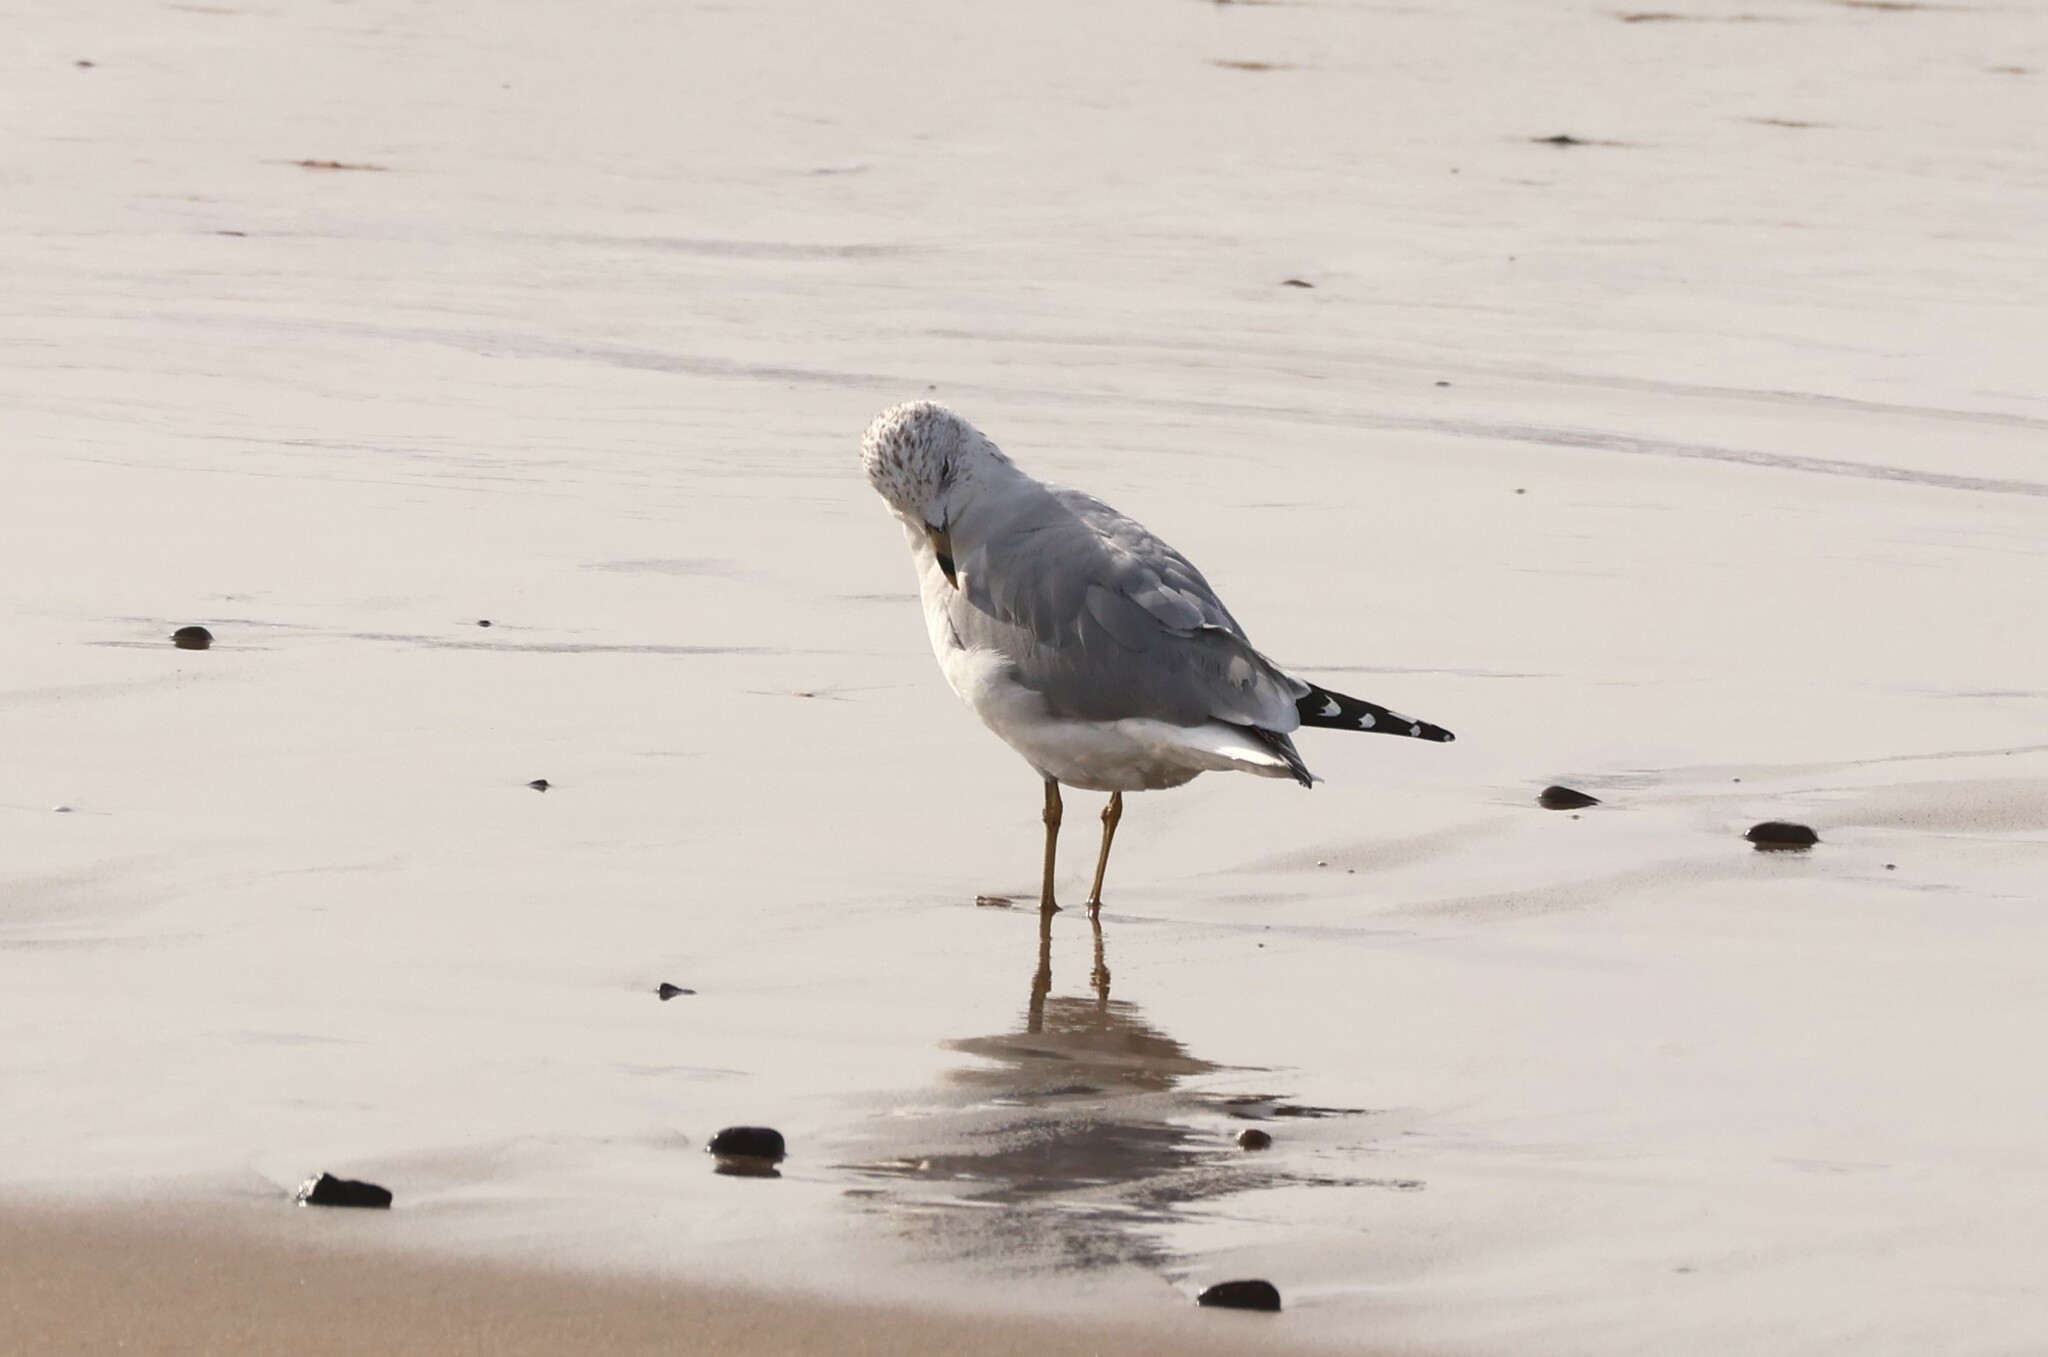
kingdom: Animalia
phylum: Chordata
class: Aves
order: Charadriiformes
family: Laridae
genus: Larus
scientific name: Larus delawarensis
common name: Ring-billed gull
